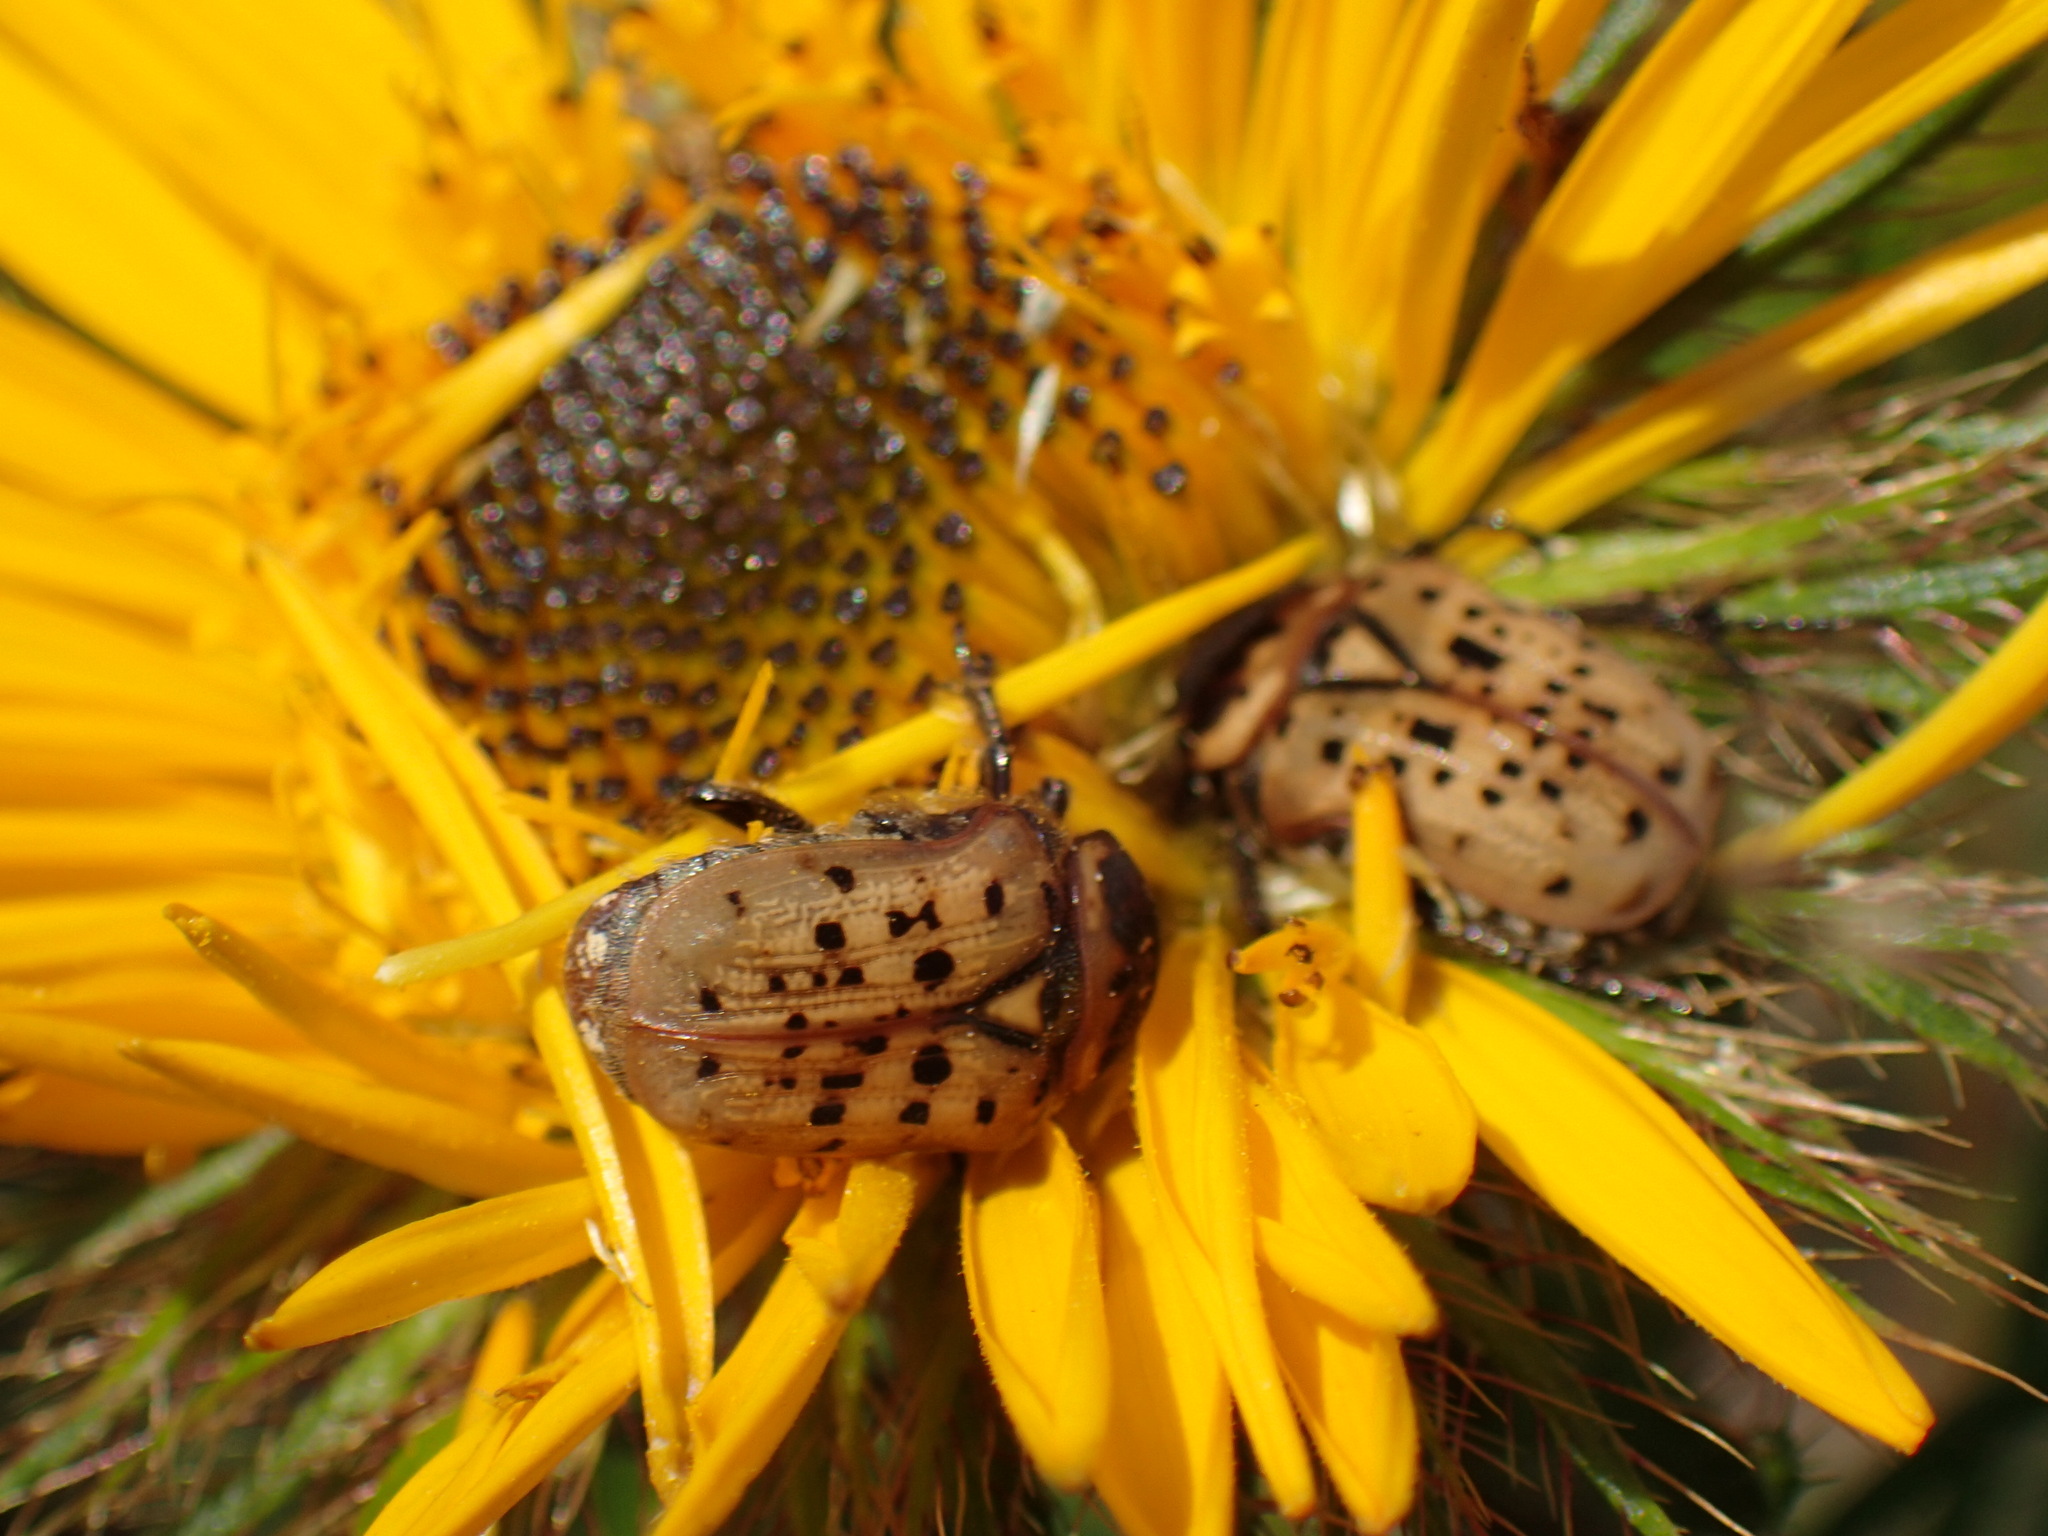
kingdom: Animalia
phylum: Arthropoda
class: Insecta
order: Coleoptera
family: Scarabaeidae
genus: Atrichelaphinis
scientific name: Atrichelaphinis tigrina
